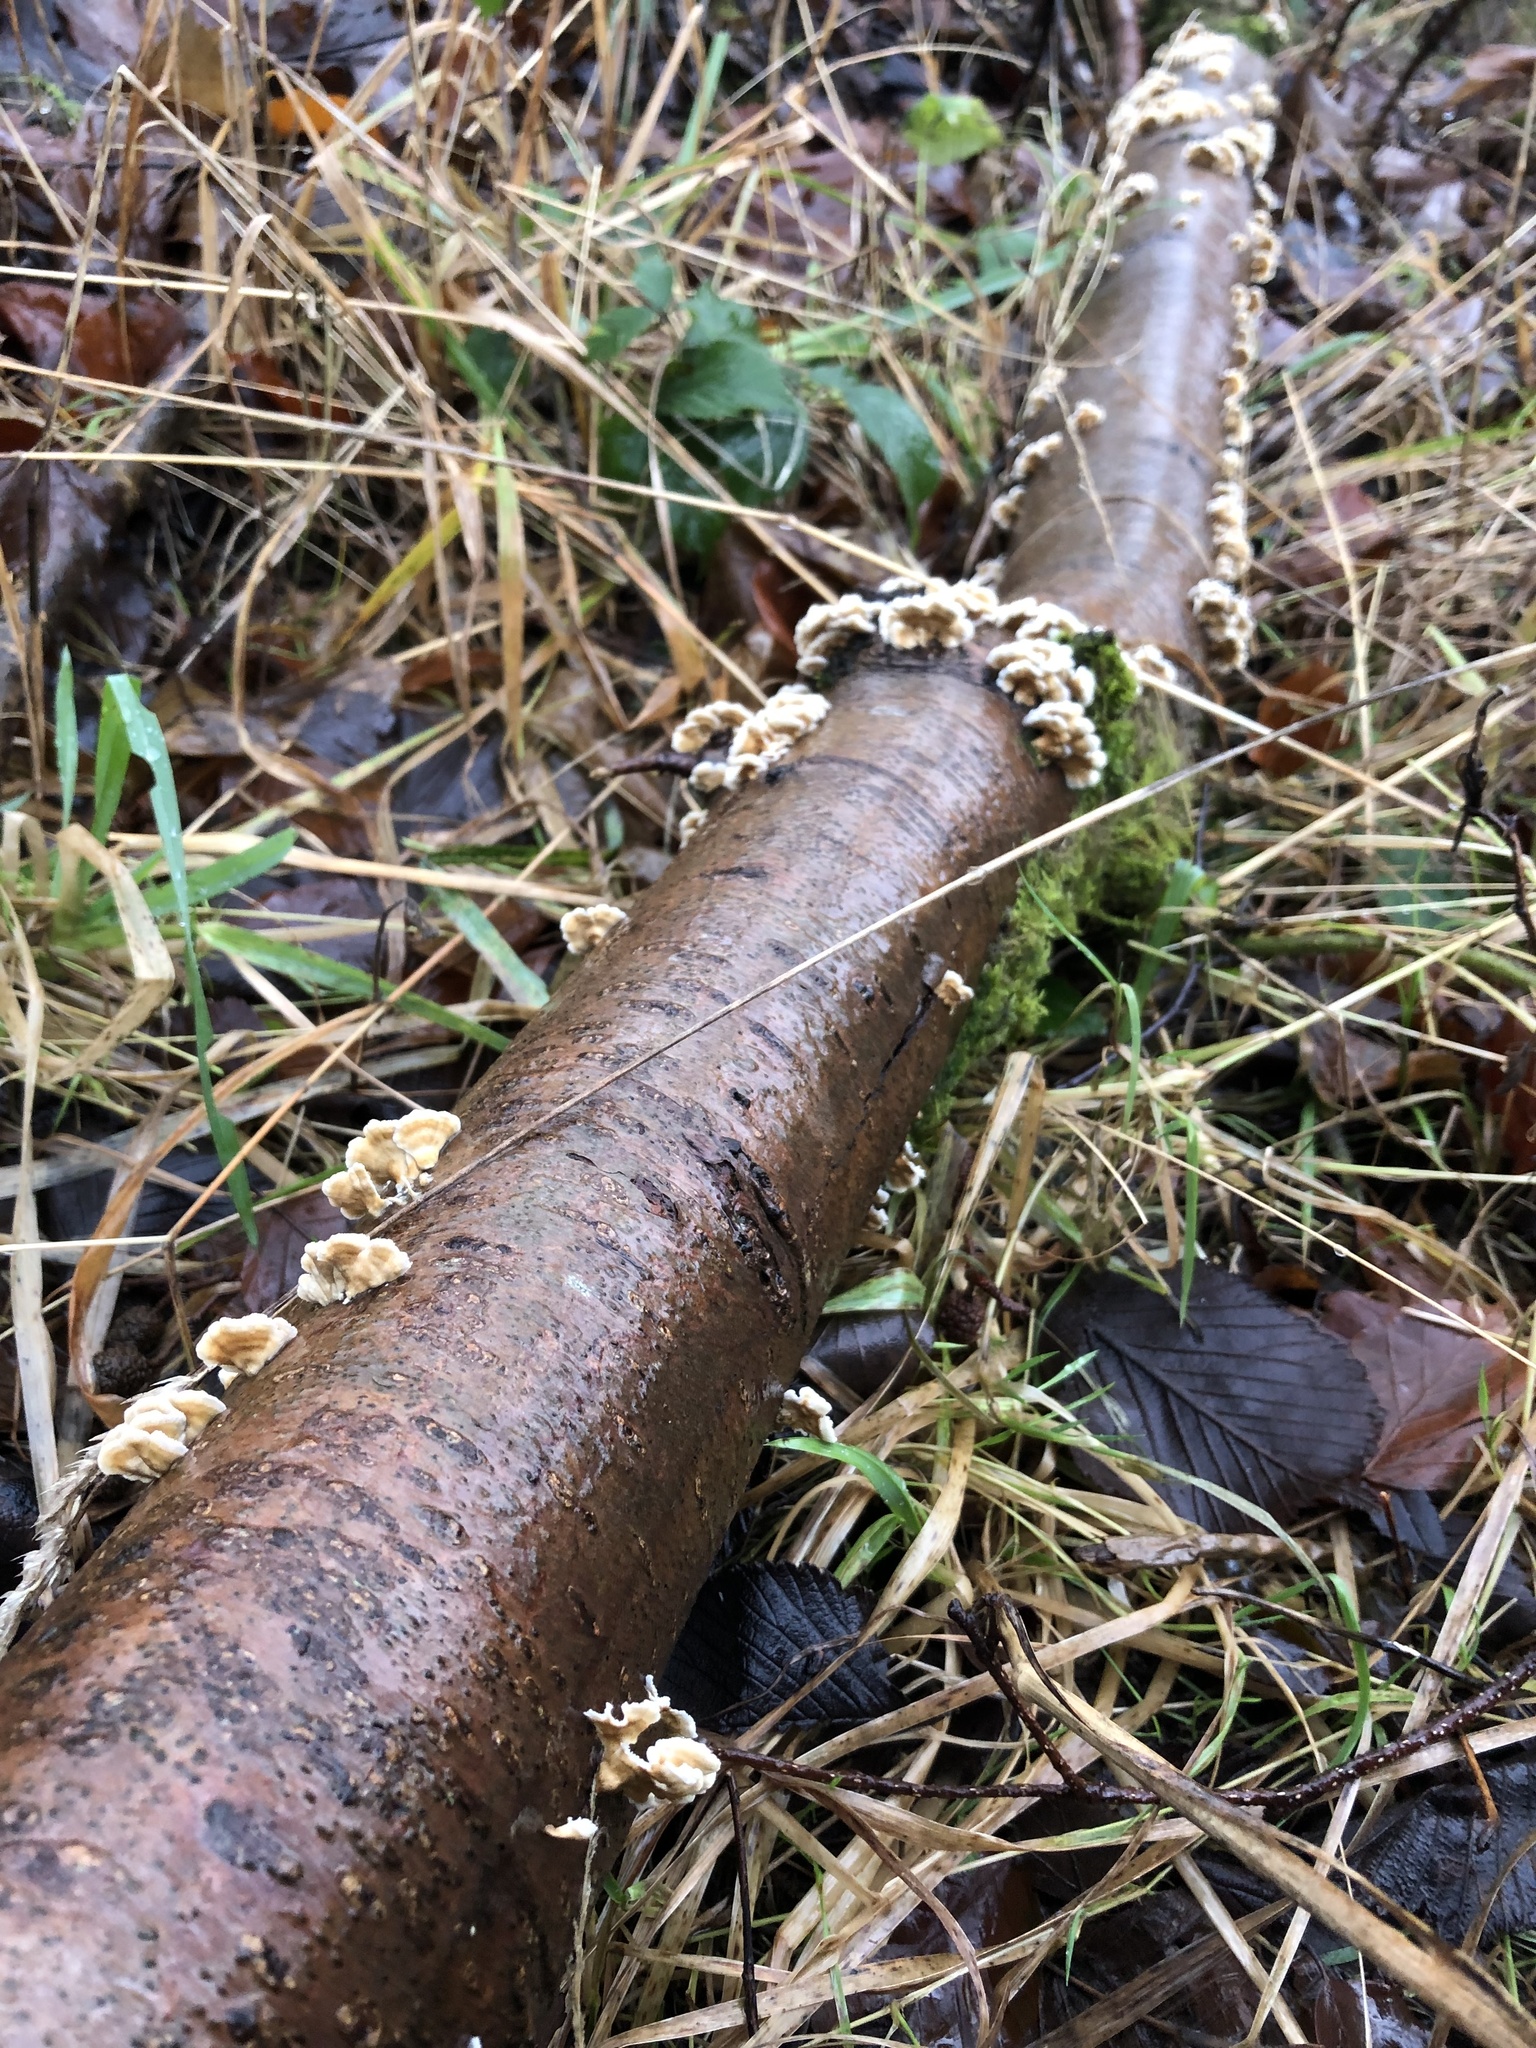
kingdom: Fungi
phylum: Basidiomycota
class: Agaricomycetes
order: Amylocorticiales
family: Amylocorticiaceae
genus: Plicaturopsis
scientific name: Plicaturopsis crispa
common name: Crimped gill
